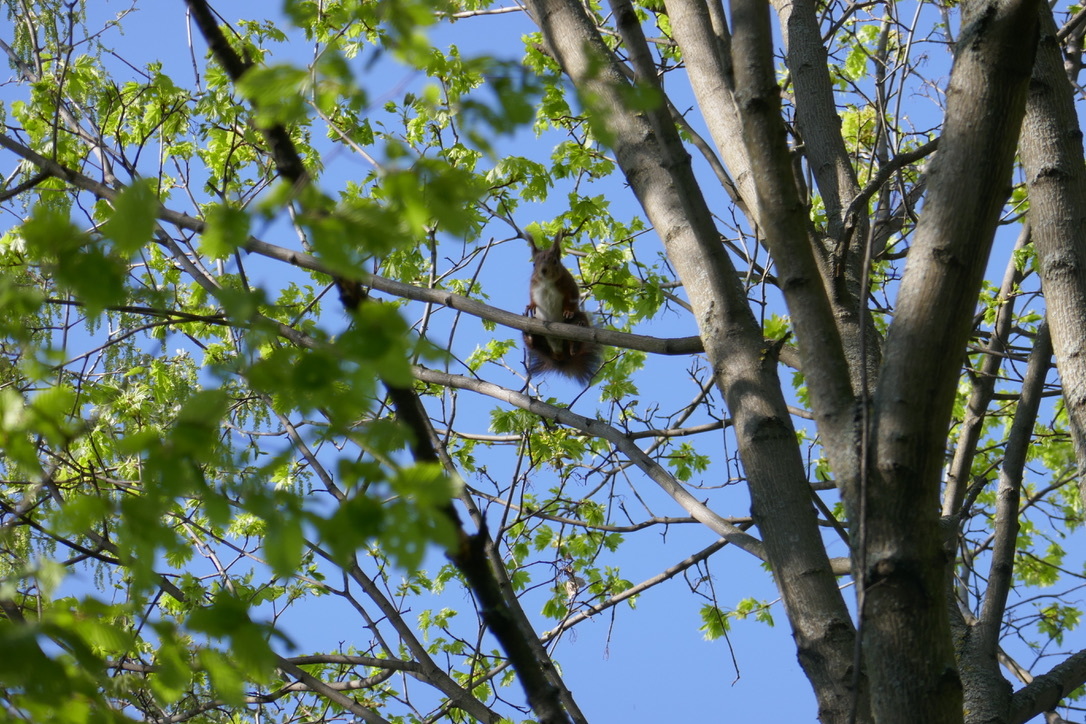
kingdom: Animalia
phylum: Chordata
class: Mammalia
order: Rodentia
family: Sciuridae
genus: Sciurus
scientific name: Sciurus vulgaris
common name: Eurasian red squirrel
